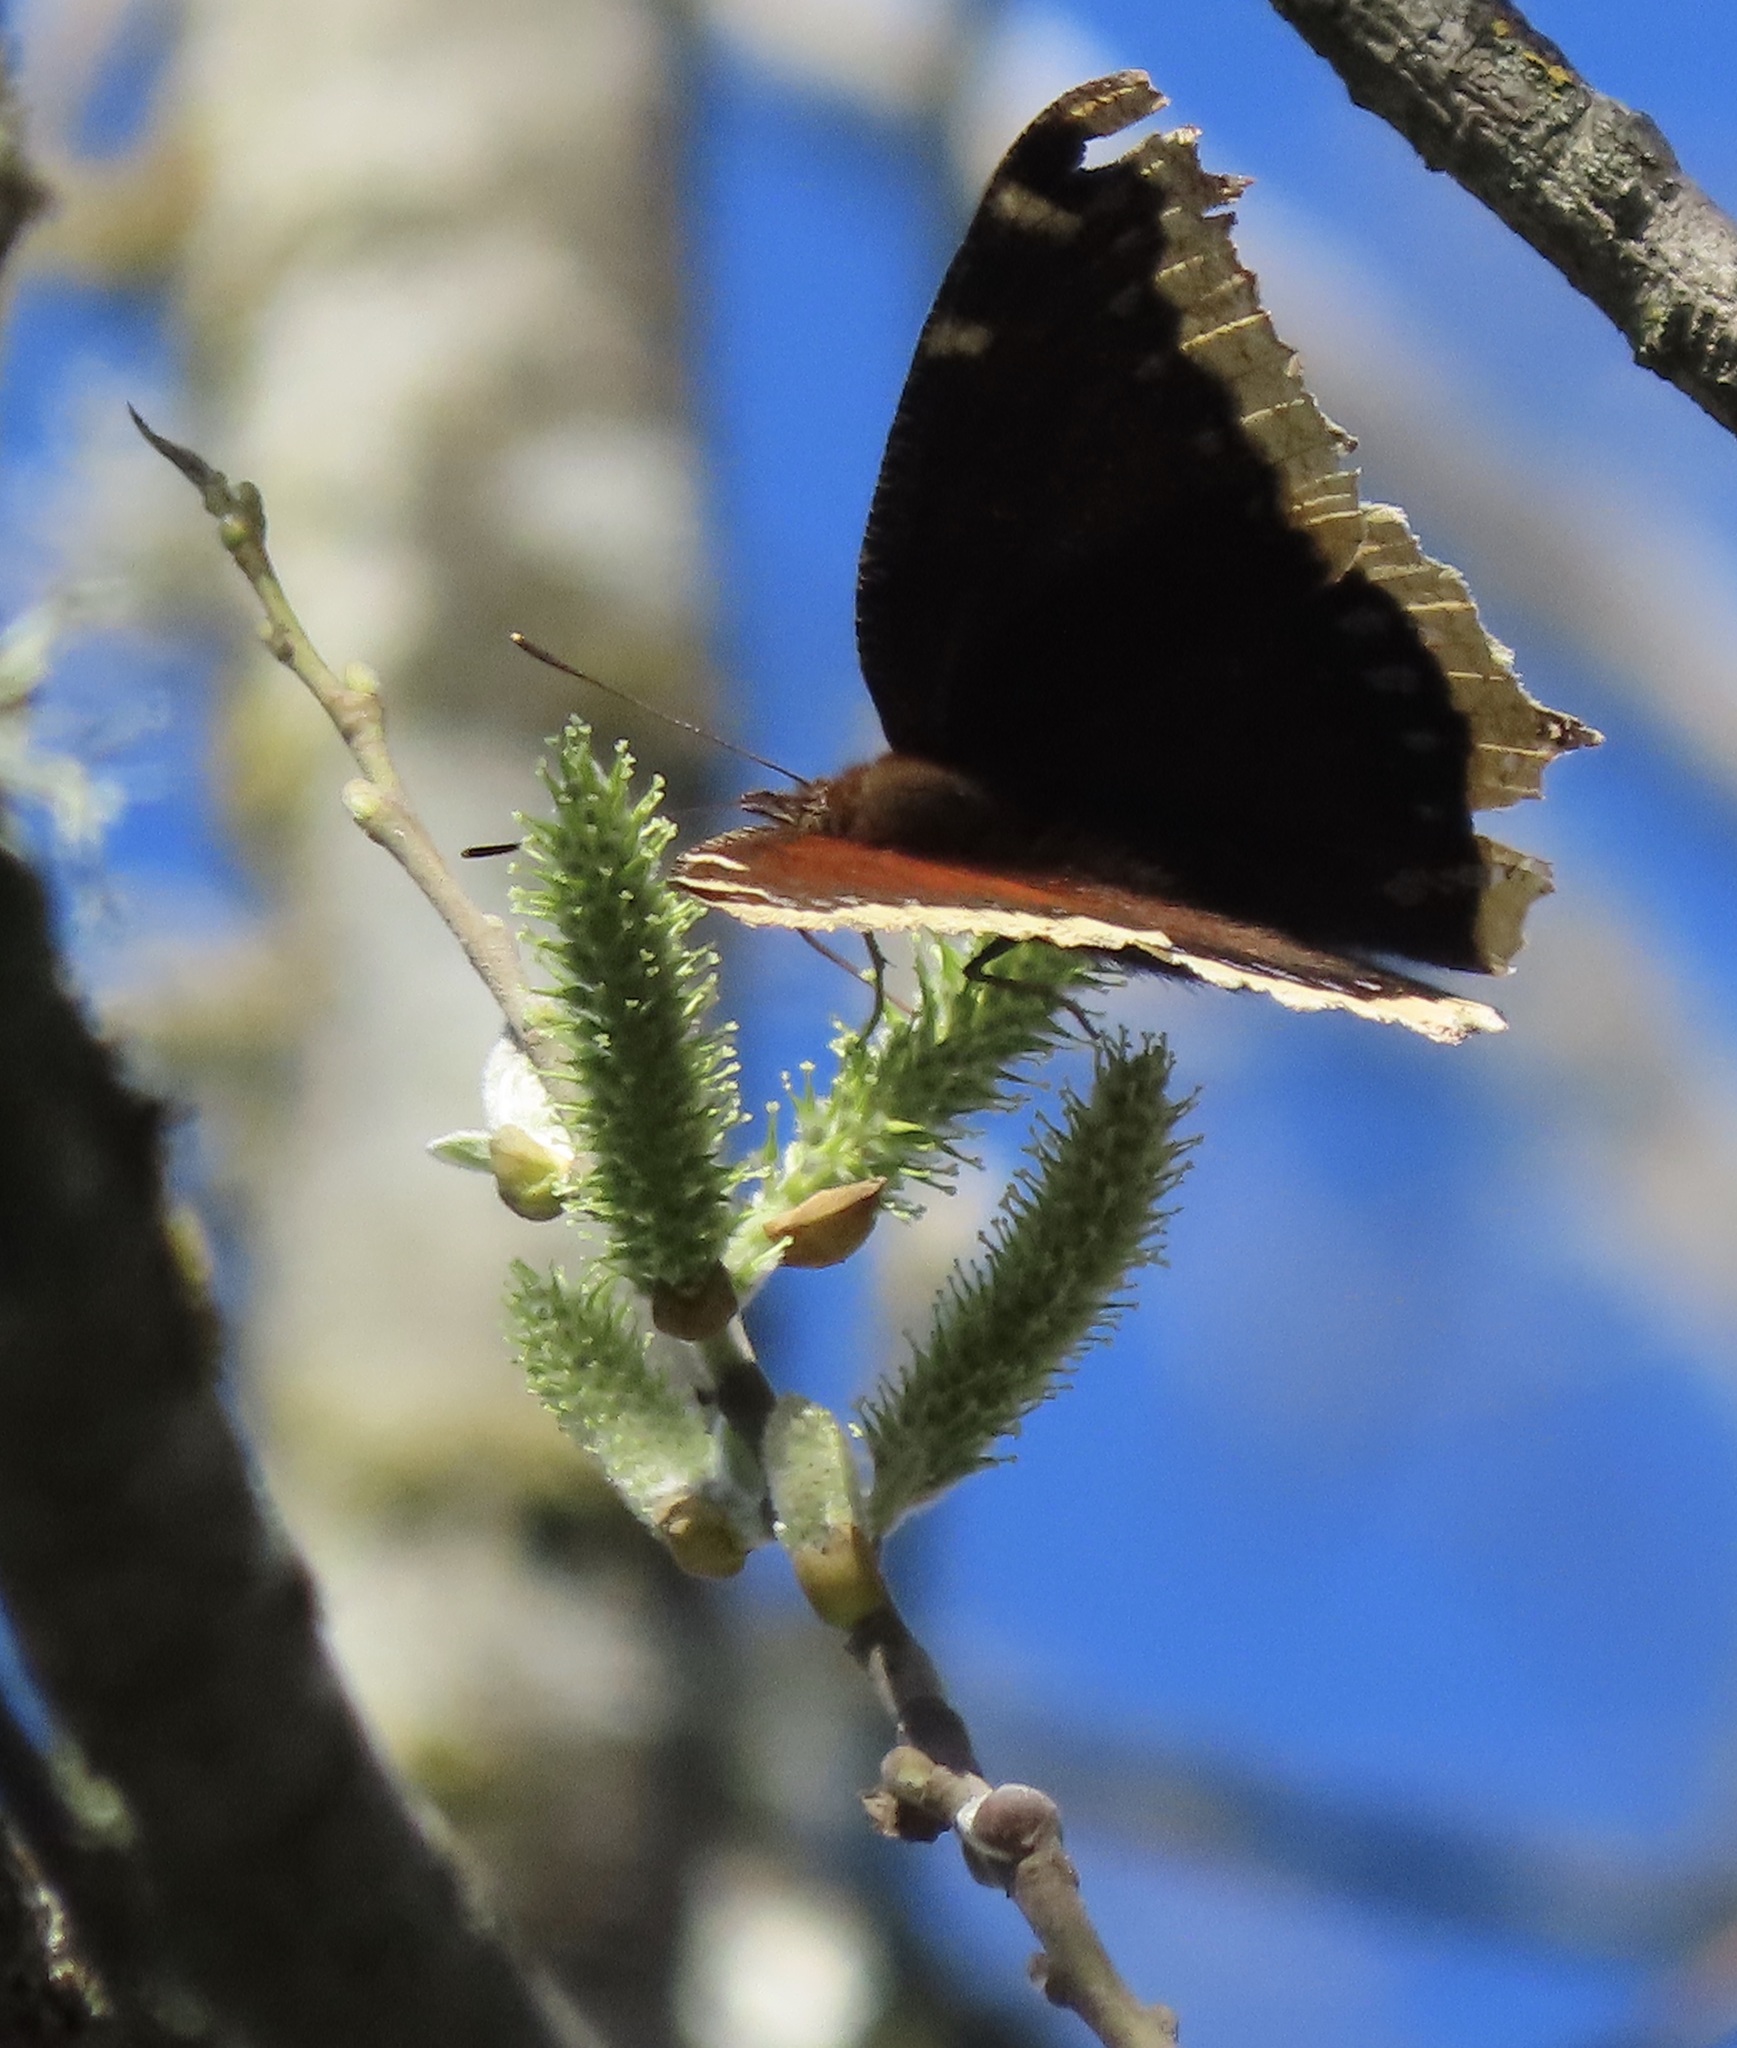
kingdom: Animalia
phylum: Arthropoda
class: Insecta
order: Lepidoptera
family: Nymphalidae
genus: Nymphalis
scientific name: Nymphalis antiopa
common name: Camberwell beauty
